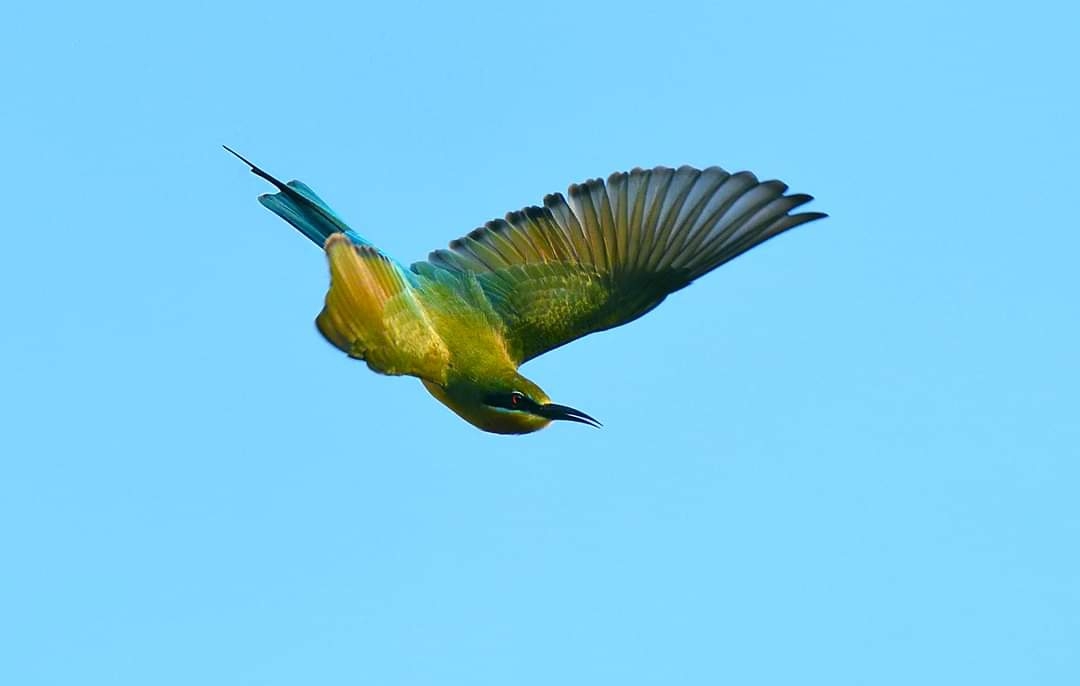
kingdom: Animalia
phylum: Chordata
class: Aves
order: Coraciiformes
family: Meropidae
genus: Merops
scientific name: Merops philippinus
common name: Blue-tailed bee-eater
